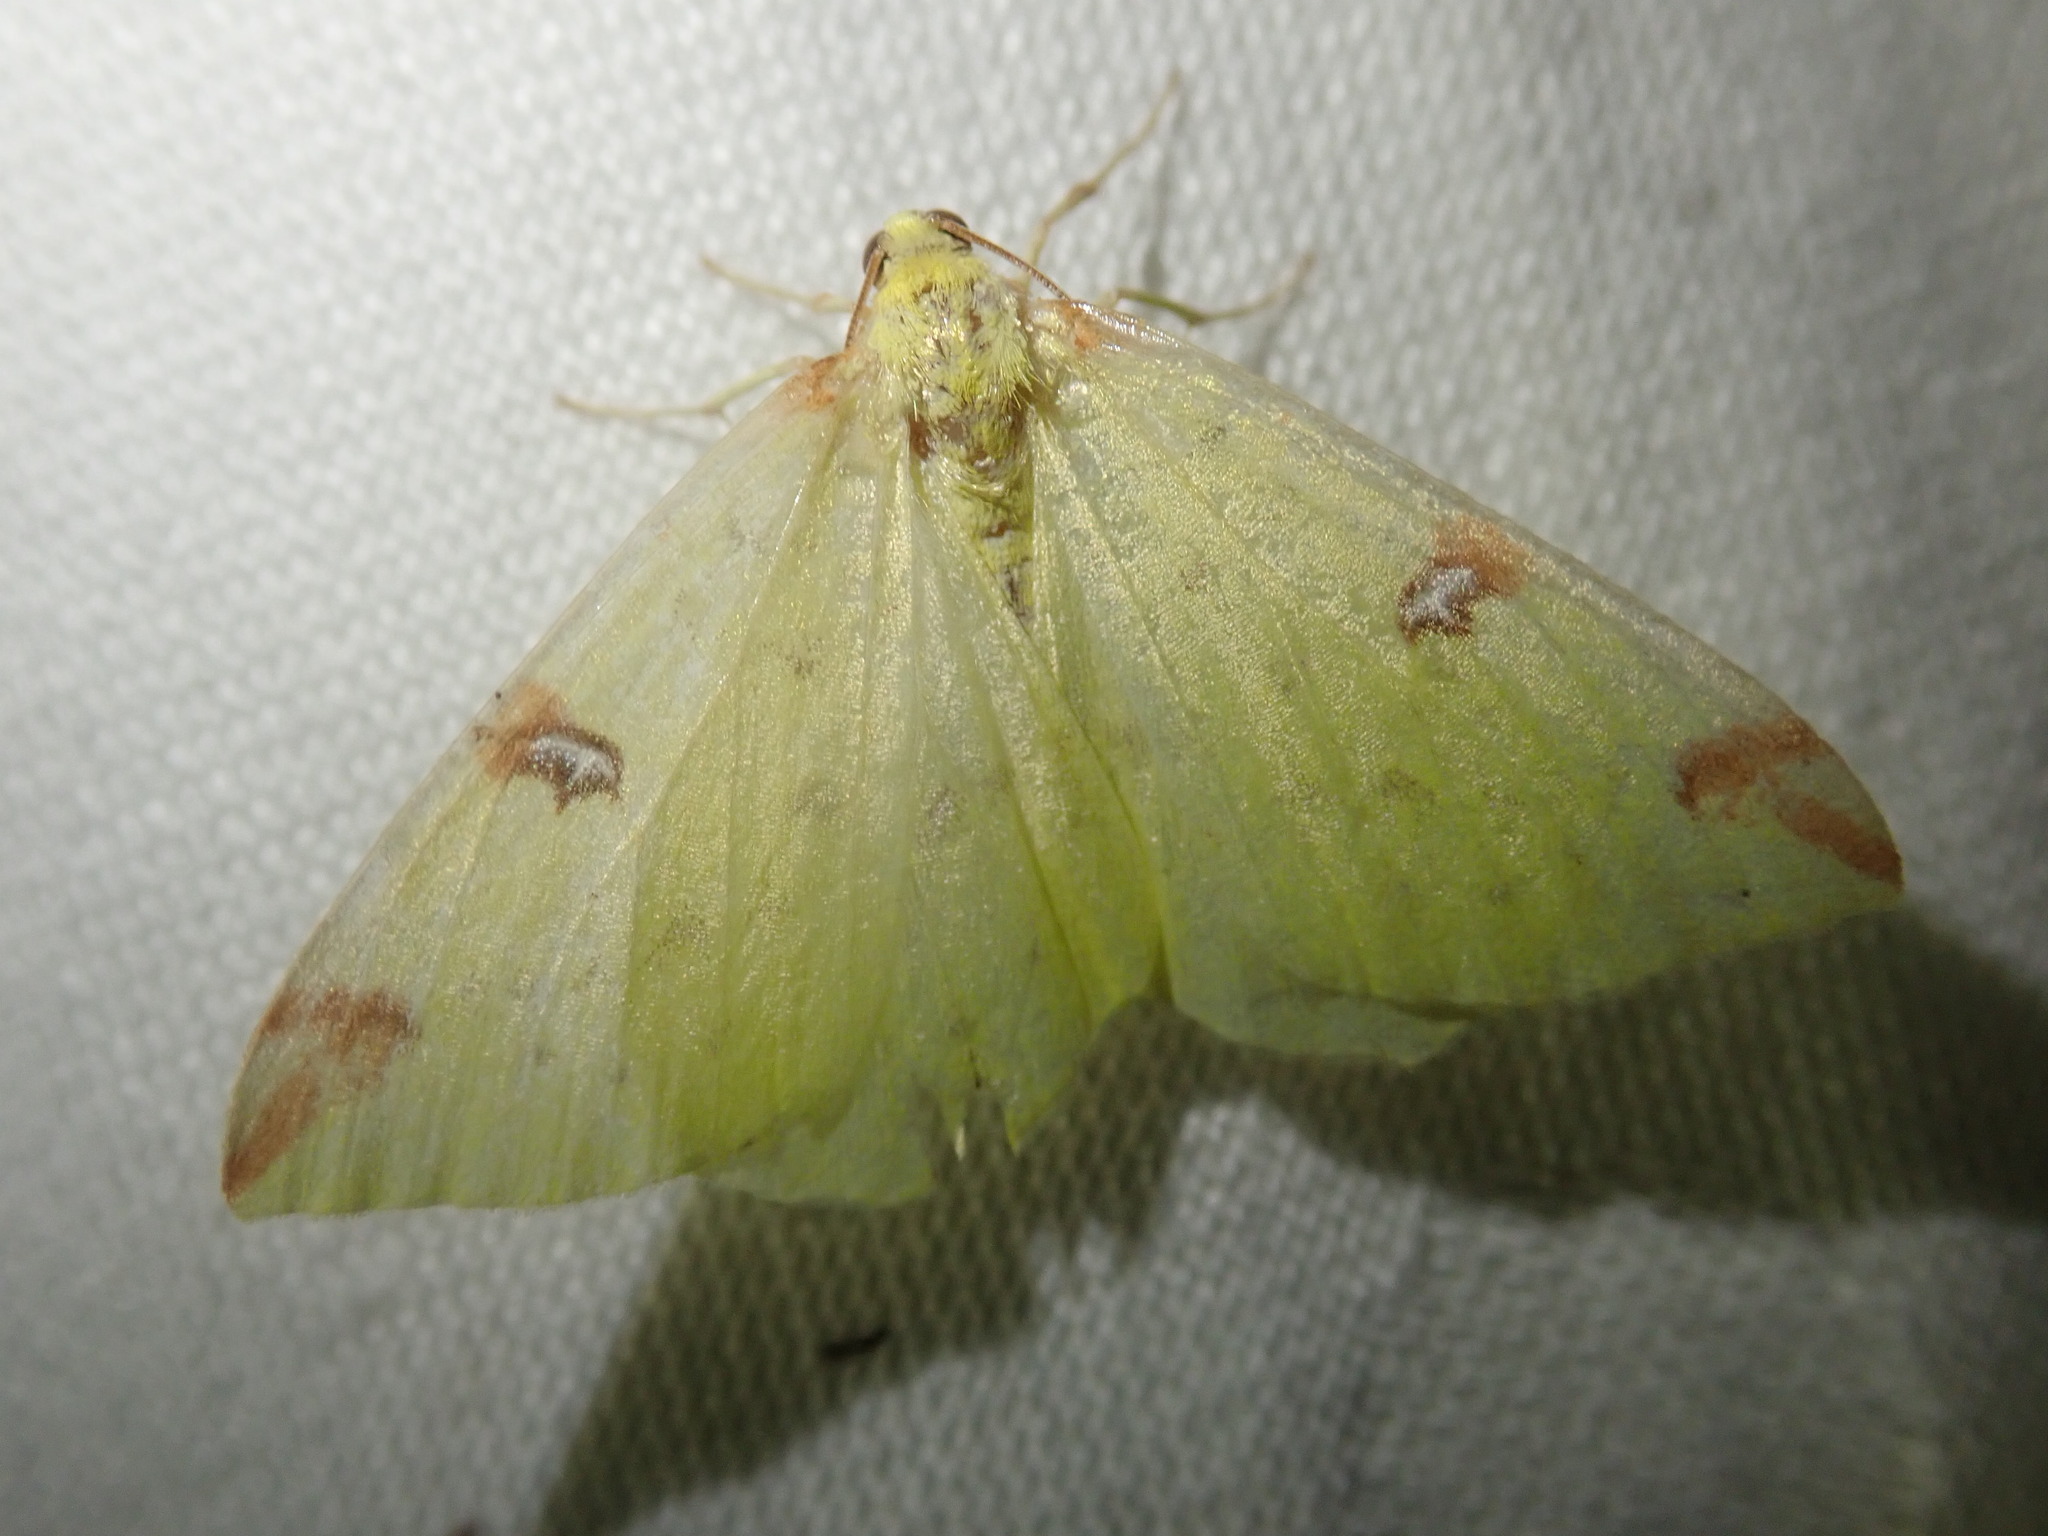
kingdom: Animalia
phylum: Arthropoda
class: Insecta
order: Lepidoptera
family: Geometridae
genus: Opisthograptis
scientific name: Opisthograptis luteolata
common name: Brimstone moth
